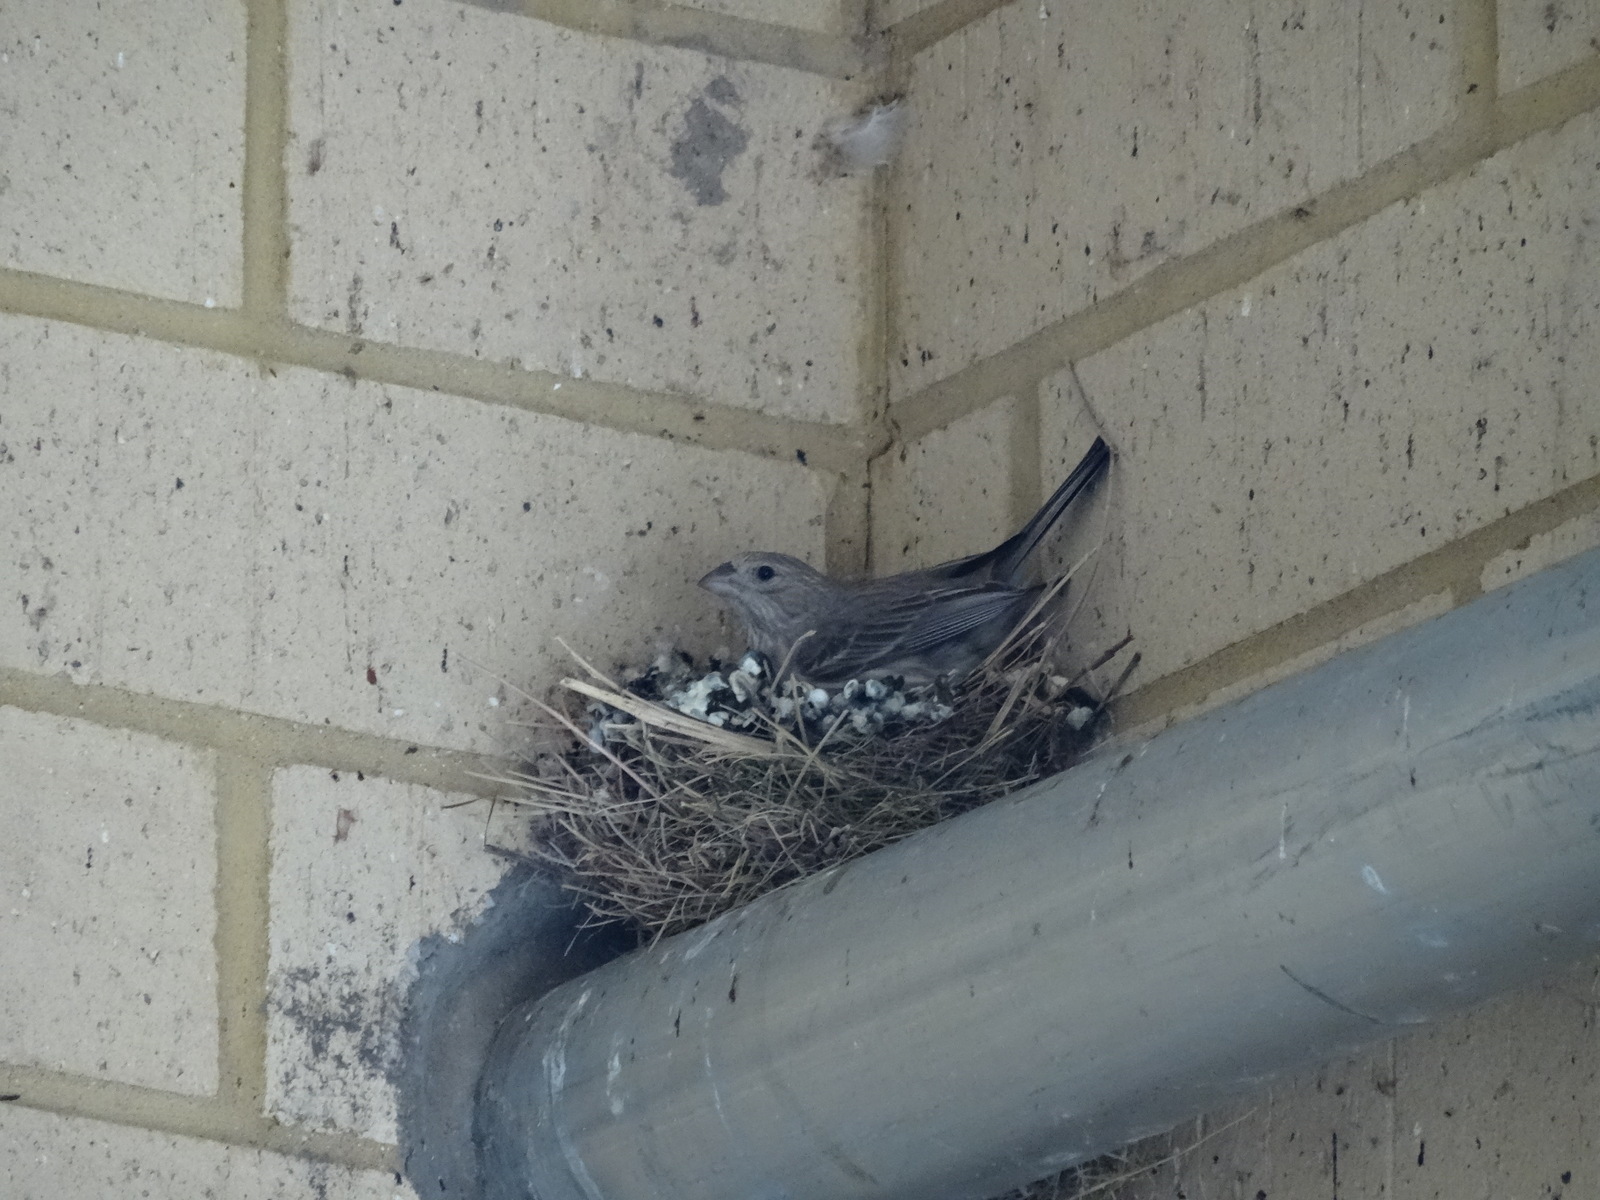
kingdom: Animalia
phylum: Chordata
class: Aves
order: Passeriformes
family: Fringillidae
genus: Haemorhous
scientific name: Haemorhous mexicanus
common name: House finch
